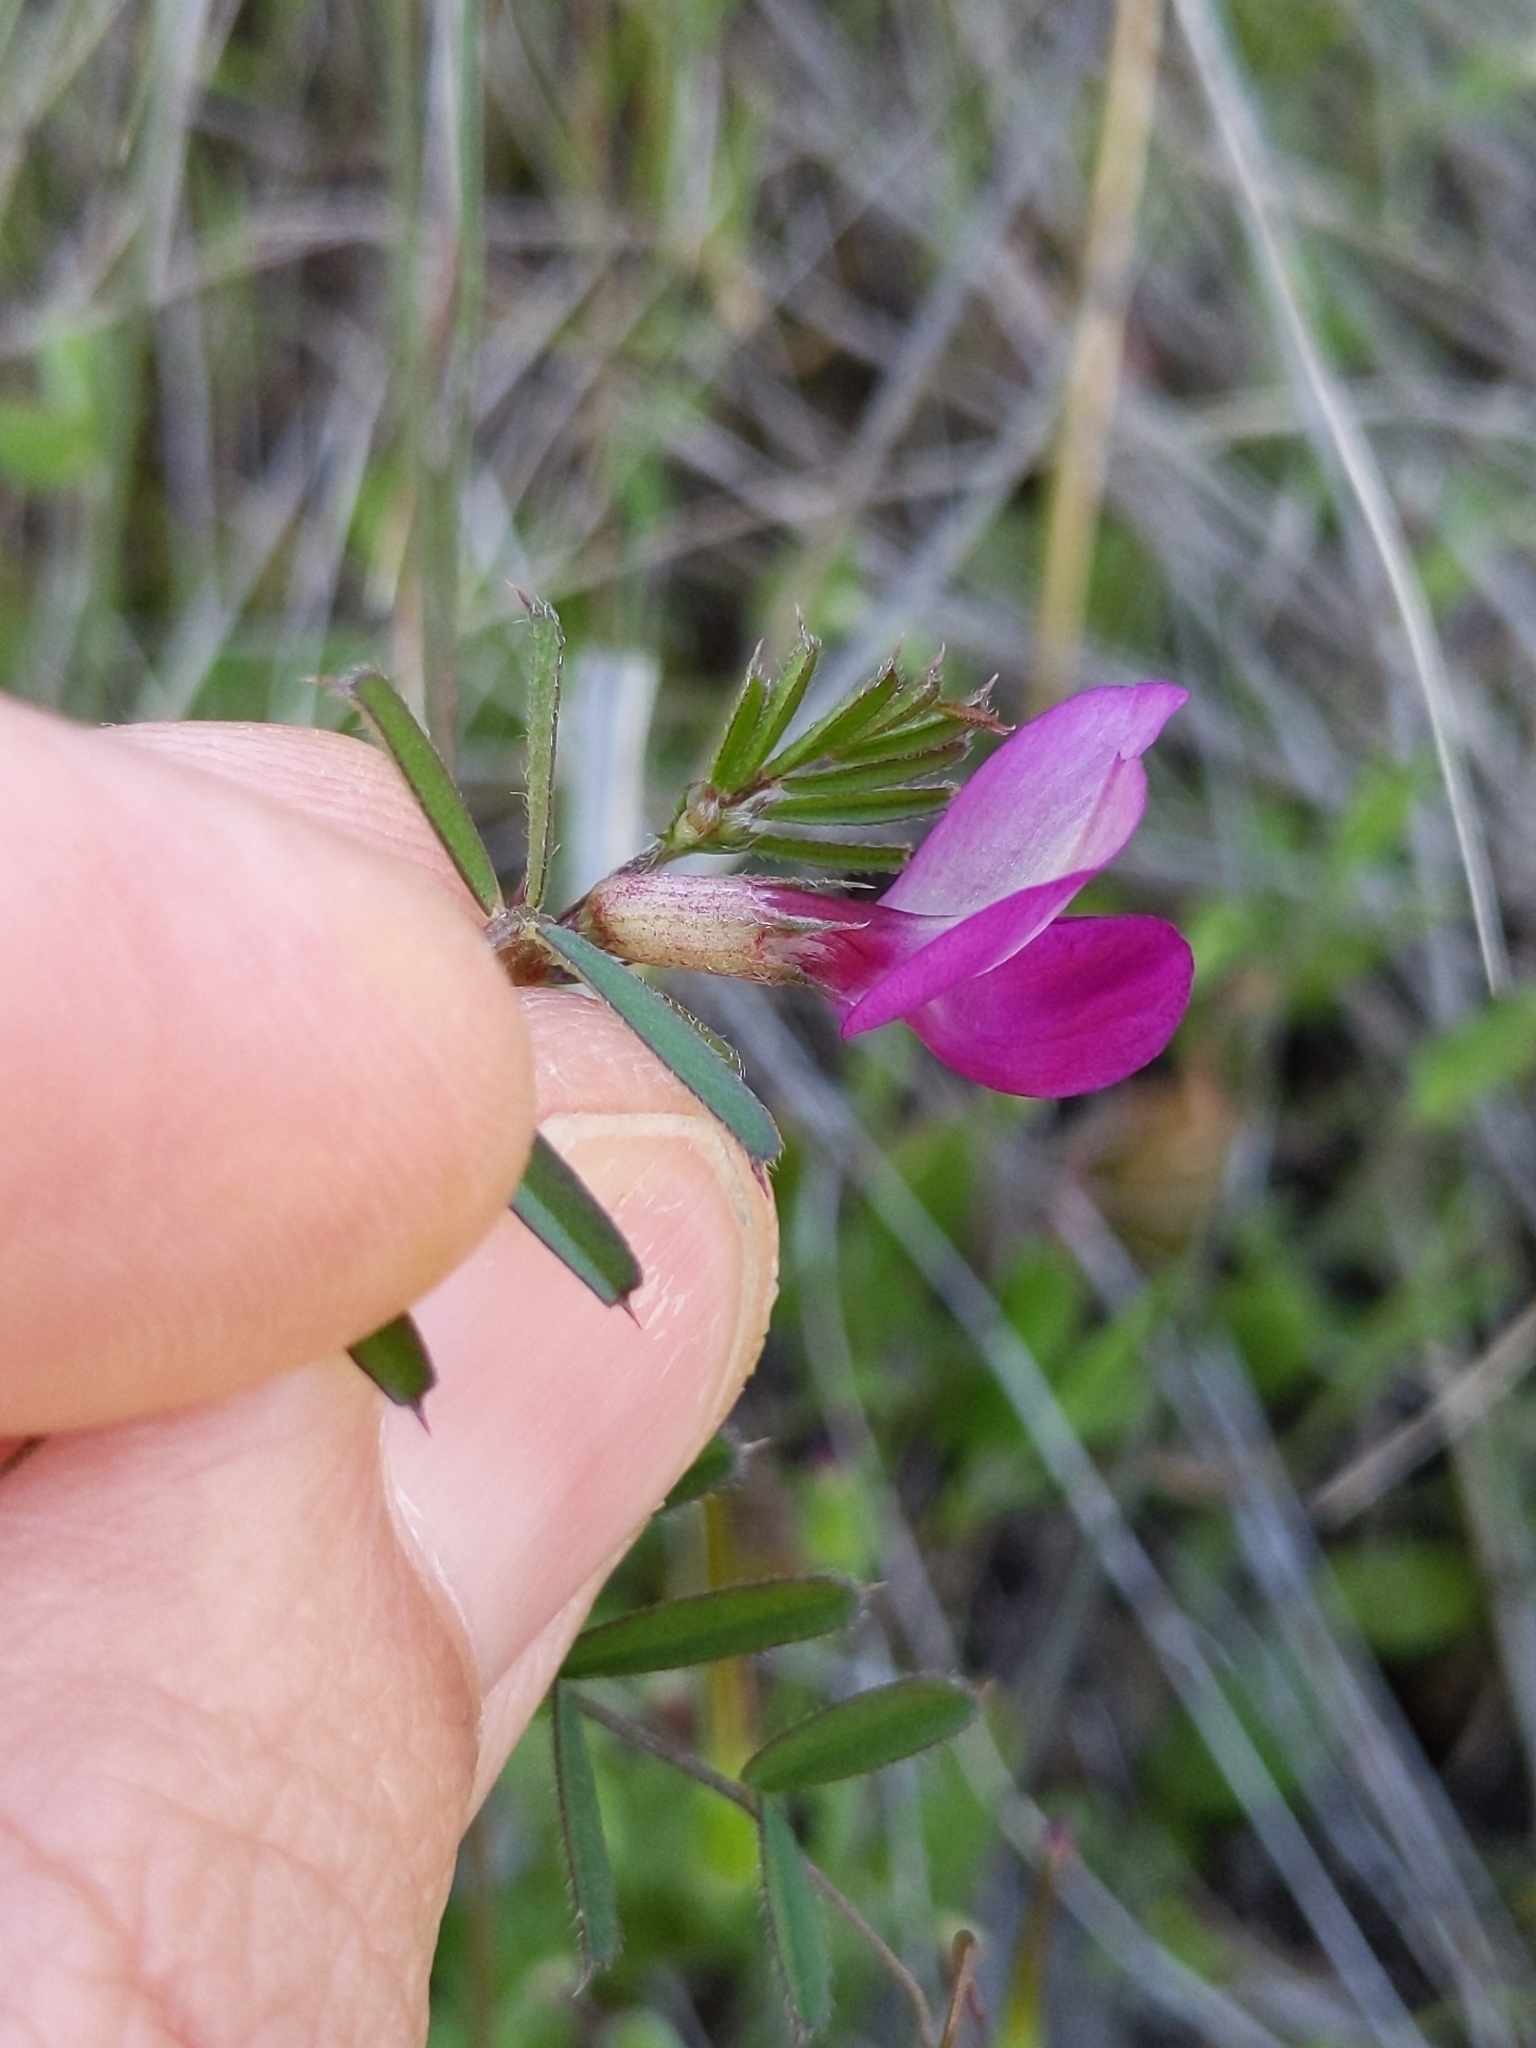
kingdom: Plantae
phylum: Tracheophyta
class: Magnoliopsida
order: Fabales
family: Fabaceae
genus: Vicia
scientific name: Vicia sativa
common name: Garden vetch
